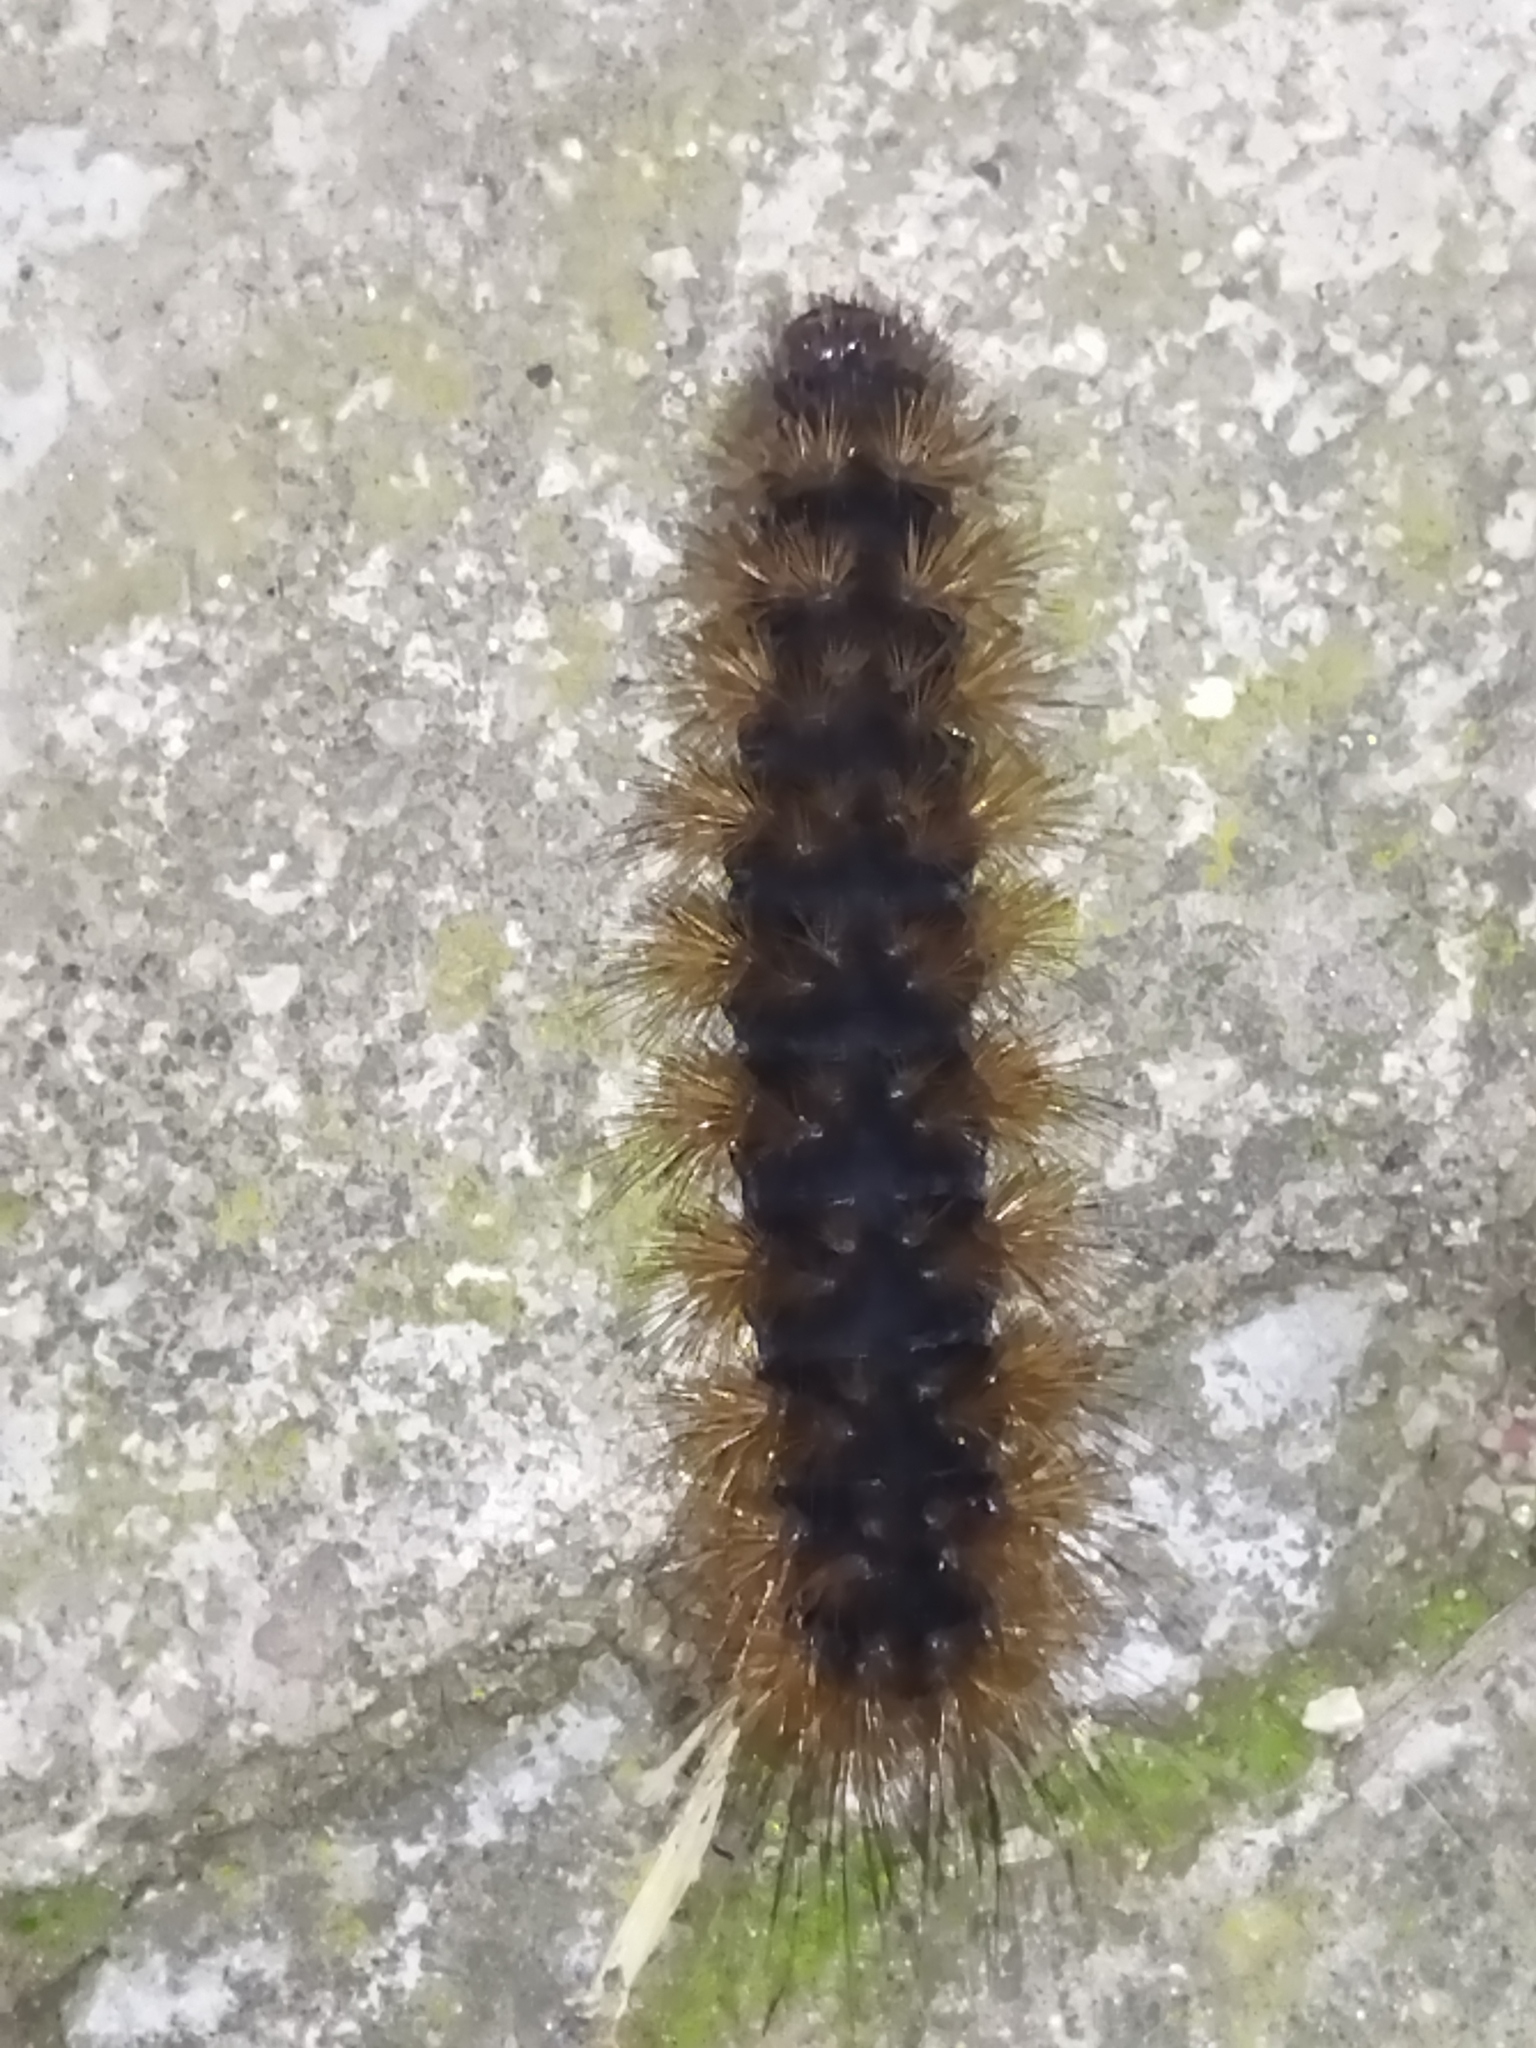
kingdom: Animalia
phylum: Arthropoda
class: Insecta
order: Lepidoptera
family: Erebidae
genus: Epicallia
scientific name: Epicallia villica
